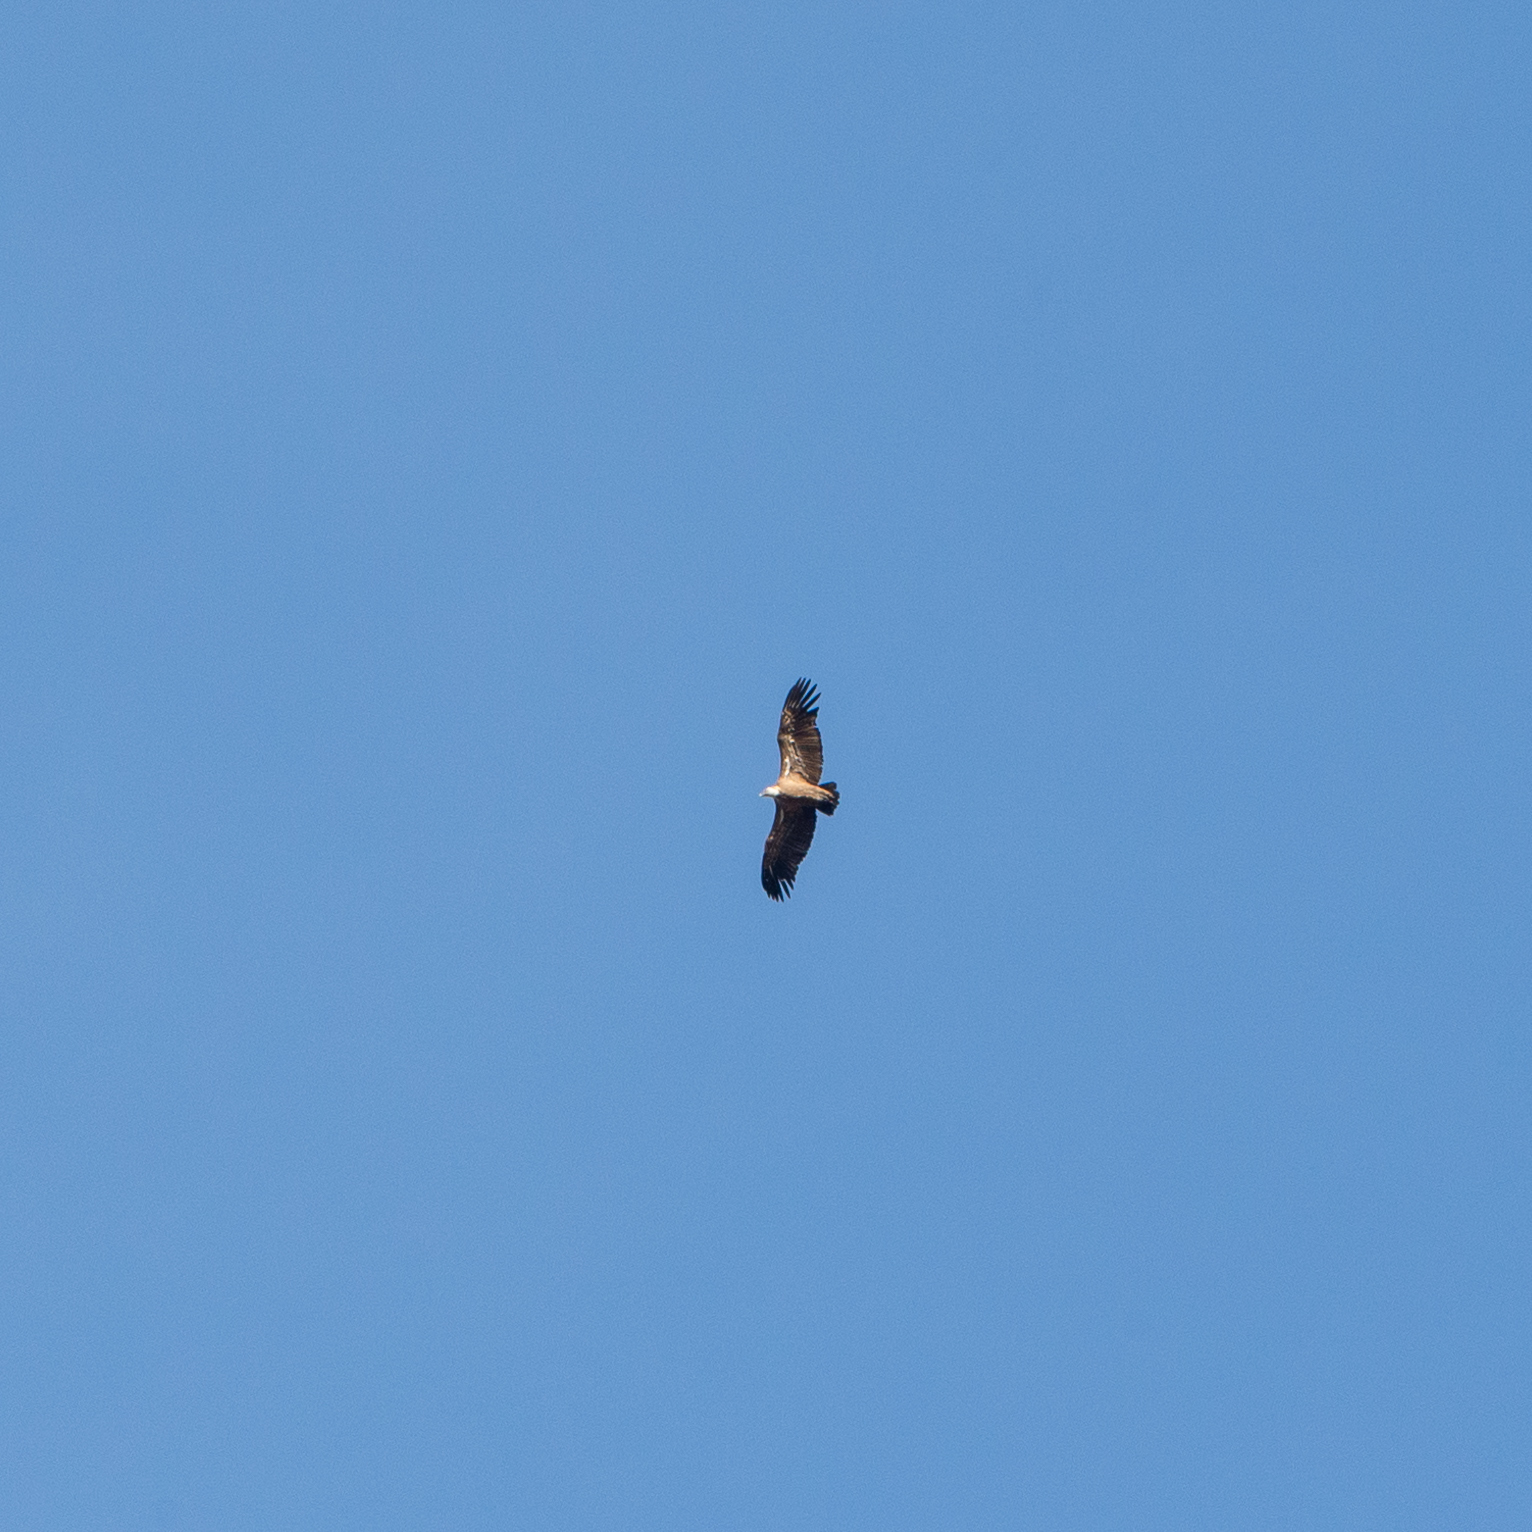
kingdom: Animalia
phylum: Chordata
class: Aves
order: Accipitriformes
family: Accipitridae
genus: Gyps
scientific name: Gyps fulvus
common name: Griffon vulture
